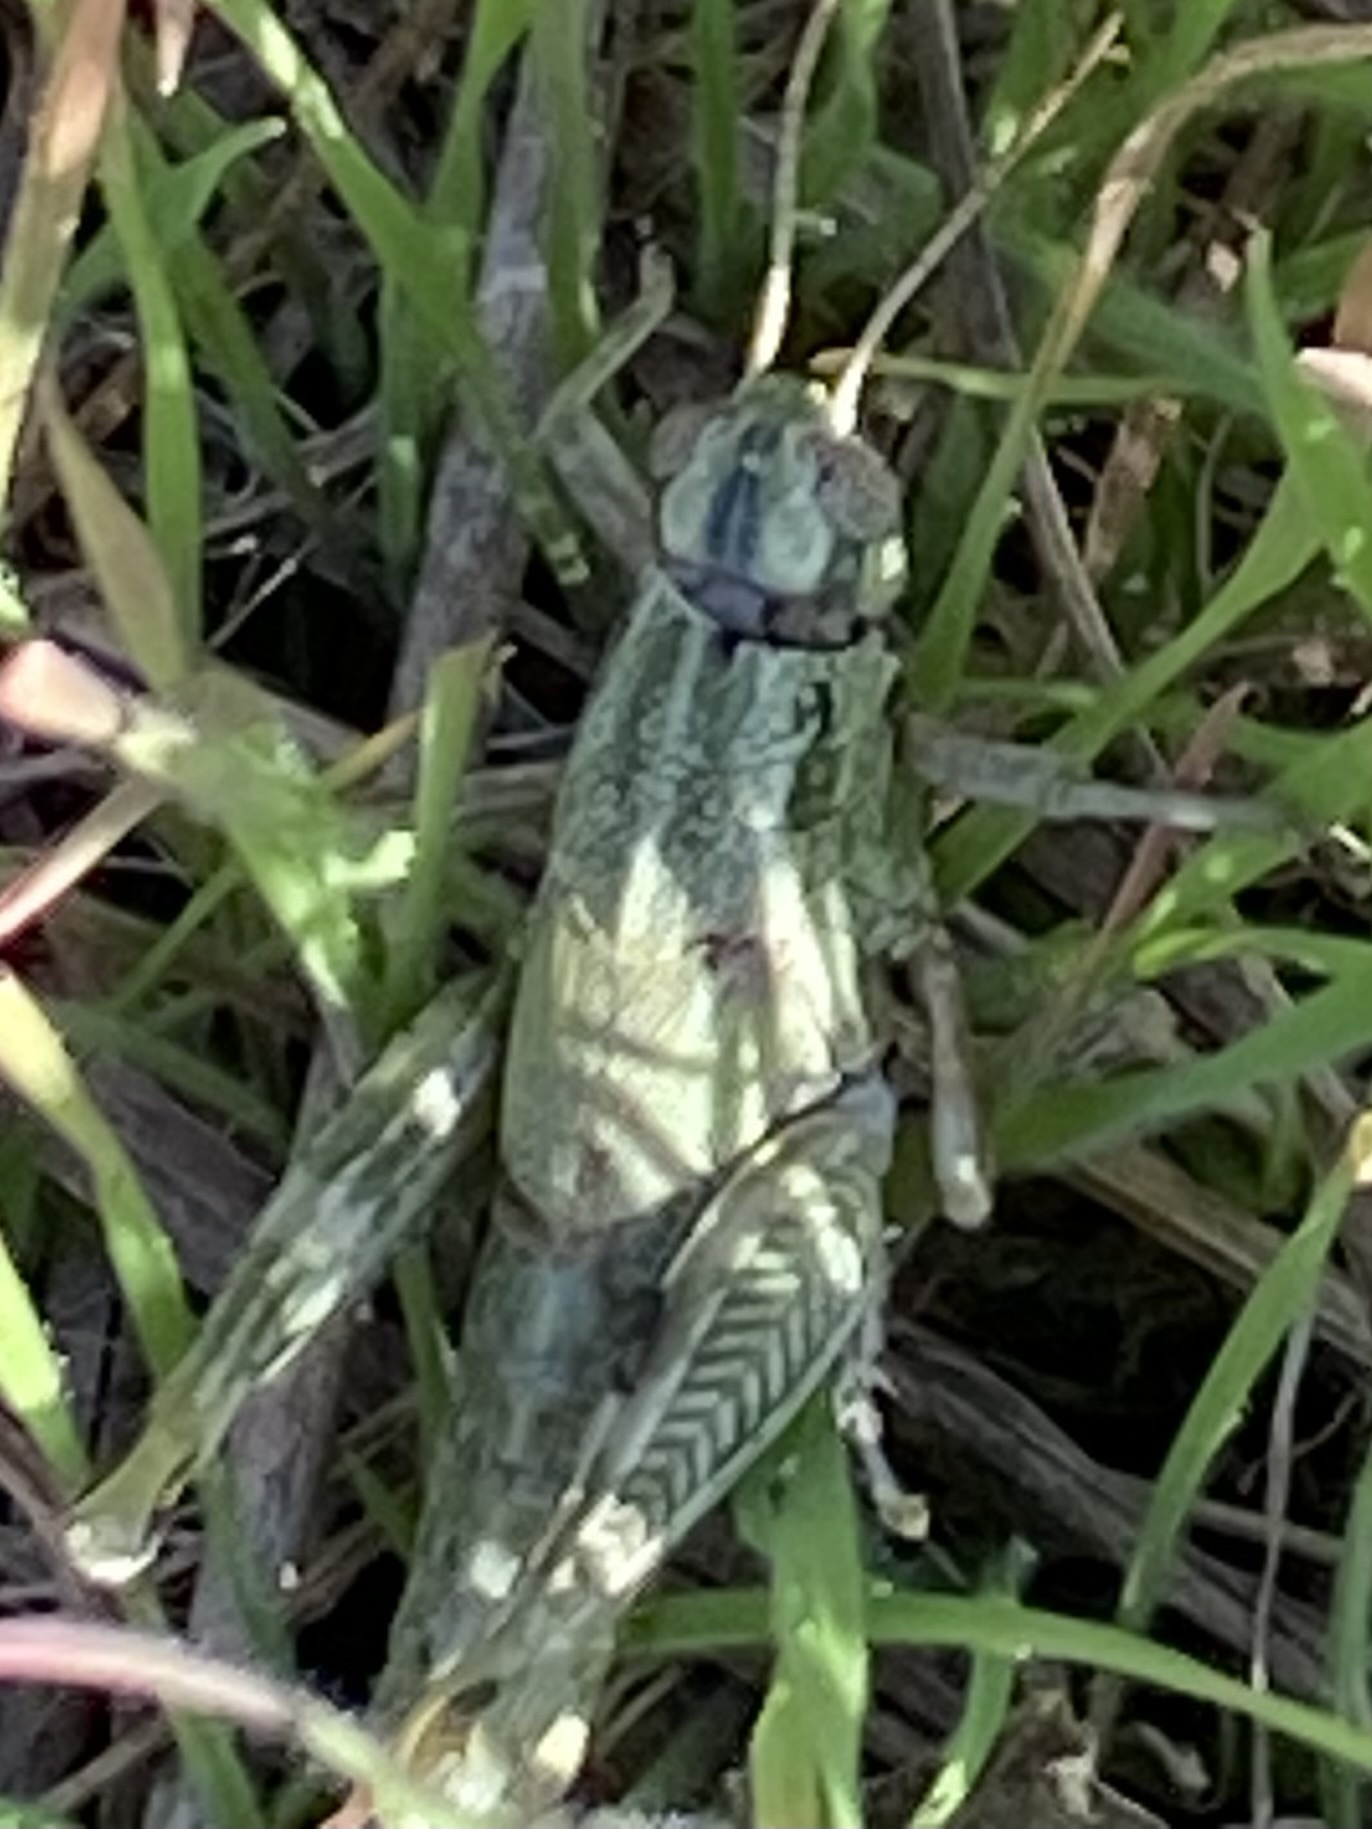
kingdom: Animalia
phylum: Arthropoda
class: Insecta
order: Orthoptera
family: Acrididae
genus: Campylacantha
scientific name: Campylacantha olivacea
